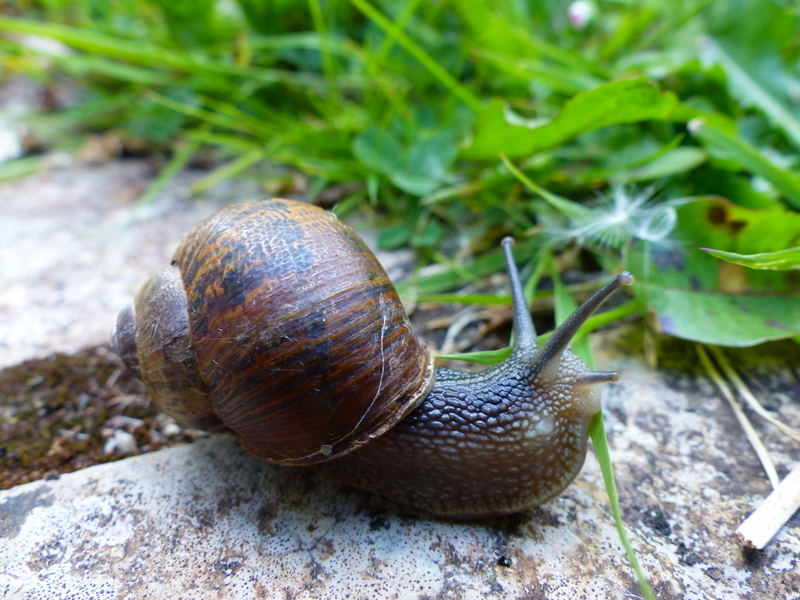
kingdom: Animalia
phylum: Mollusca
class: Gastropoda
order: Stylommatophora
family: Helicidae
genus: Cornu
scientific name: Cornu aspersum
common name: Brown garden snail
